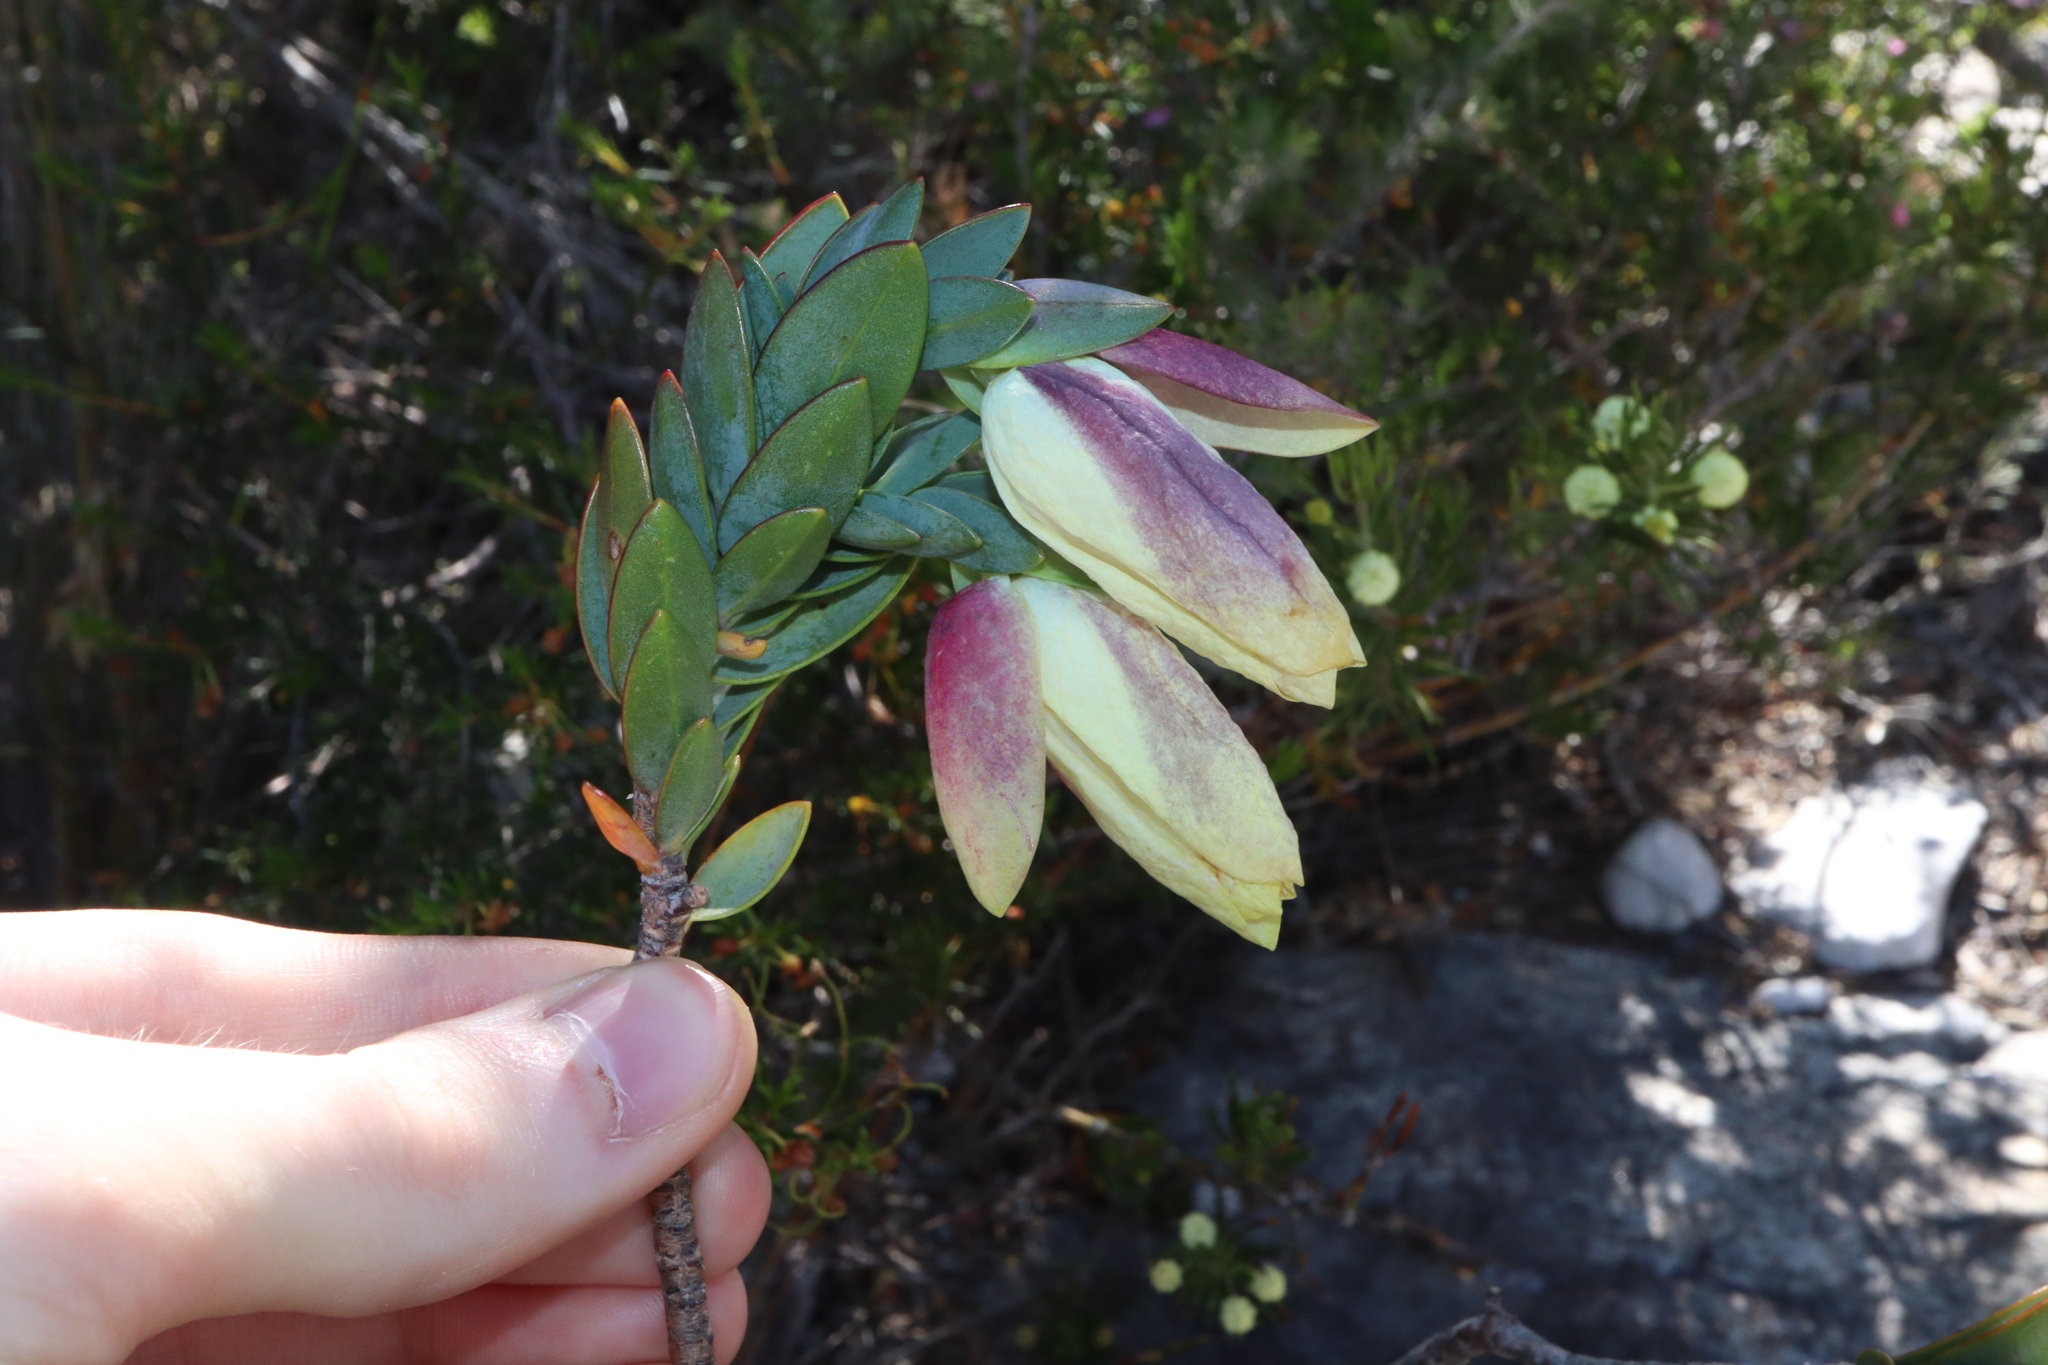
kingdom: Plantae
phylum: Tracheophyta
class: Magnoliopsida
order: Malvales
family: Thymelaeaceae
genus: Pimelea
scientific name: Pimelea physodes
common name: Qualup-bell
